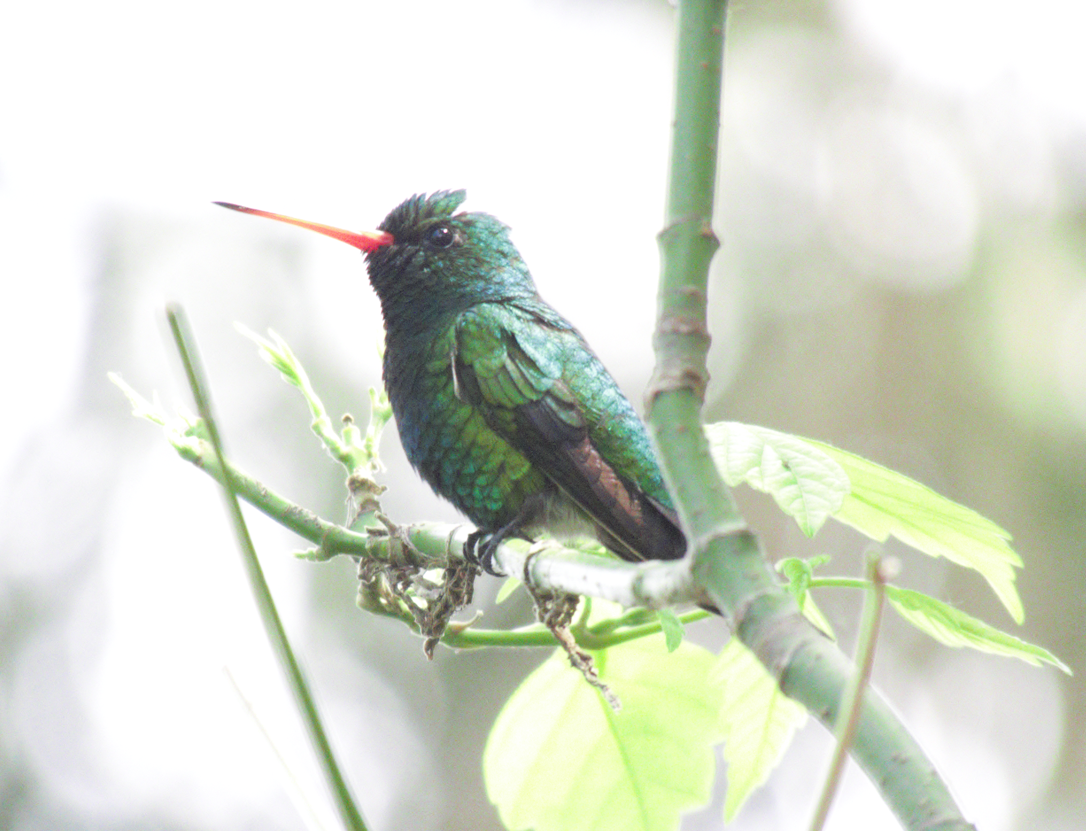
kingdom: Animalia
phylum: Chordata
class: Aves
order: Apodiformes
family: Trochilidae
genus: Chlorostilbon
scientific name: Chlorostilbon lucidus
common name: Glittering-bellied emerald
